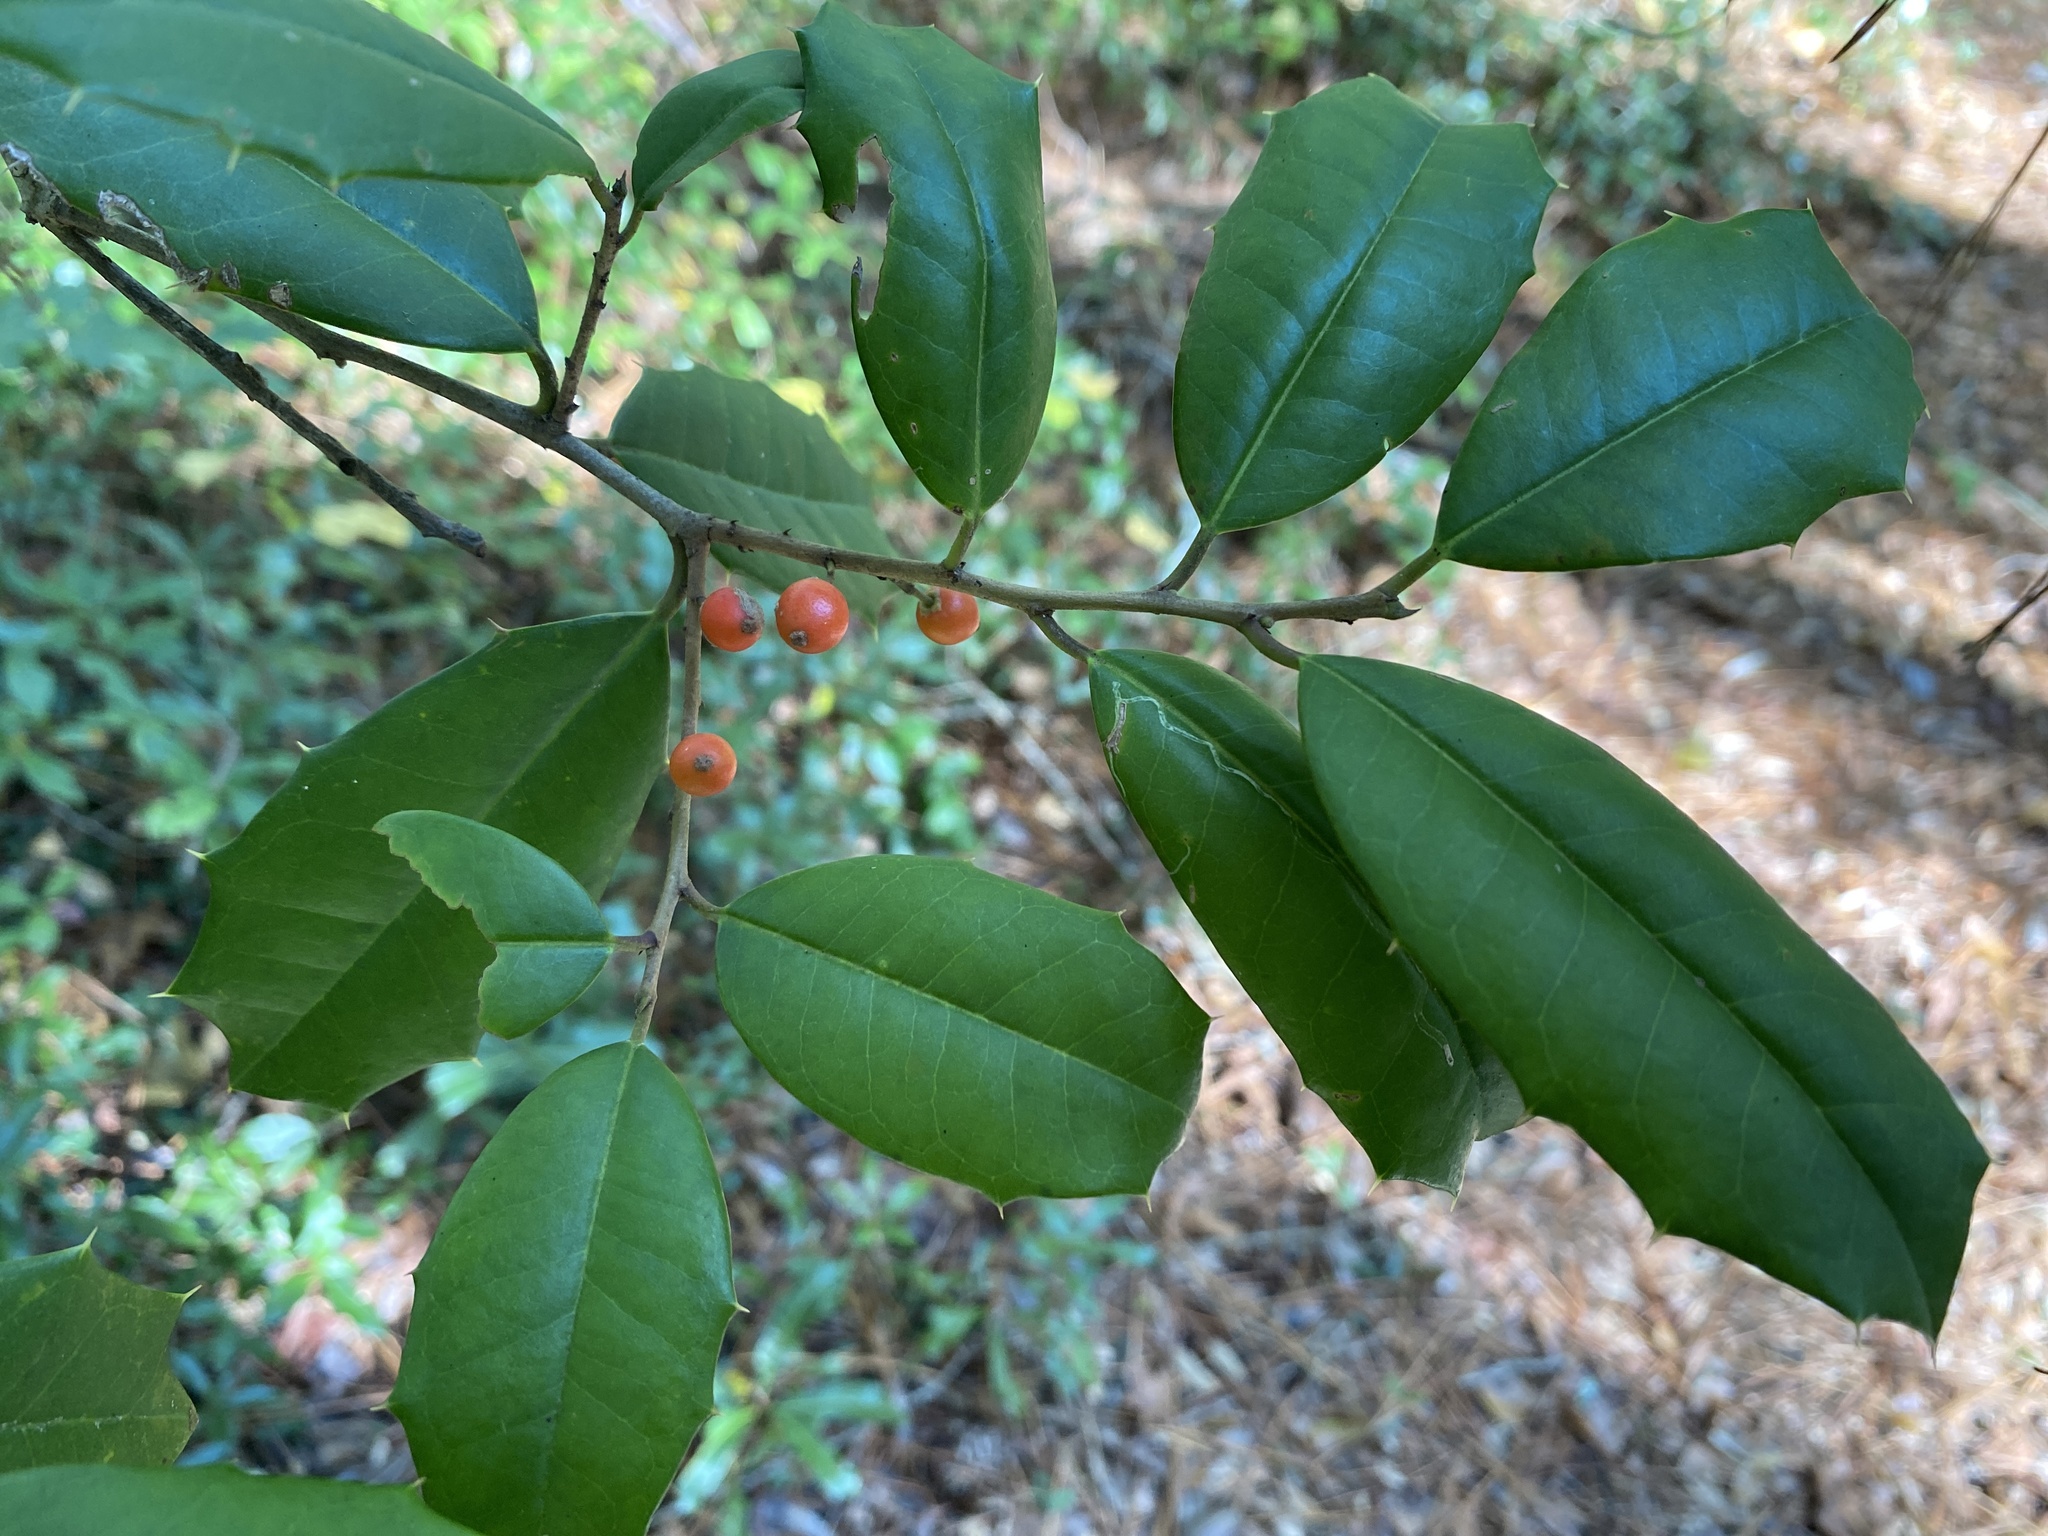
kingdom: Plantae
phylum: Tracheophyta
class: Magnoliopsida
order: Aquifoliales
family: Aquifoliaceae
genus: Ilex
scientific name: Ilex opaca
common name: American holly
